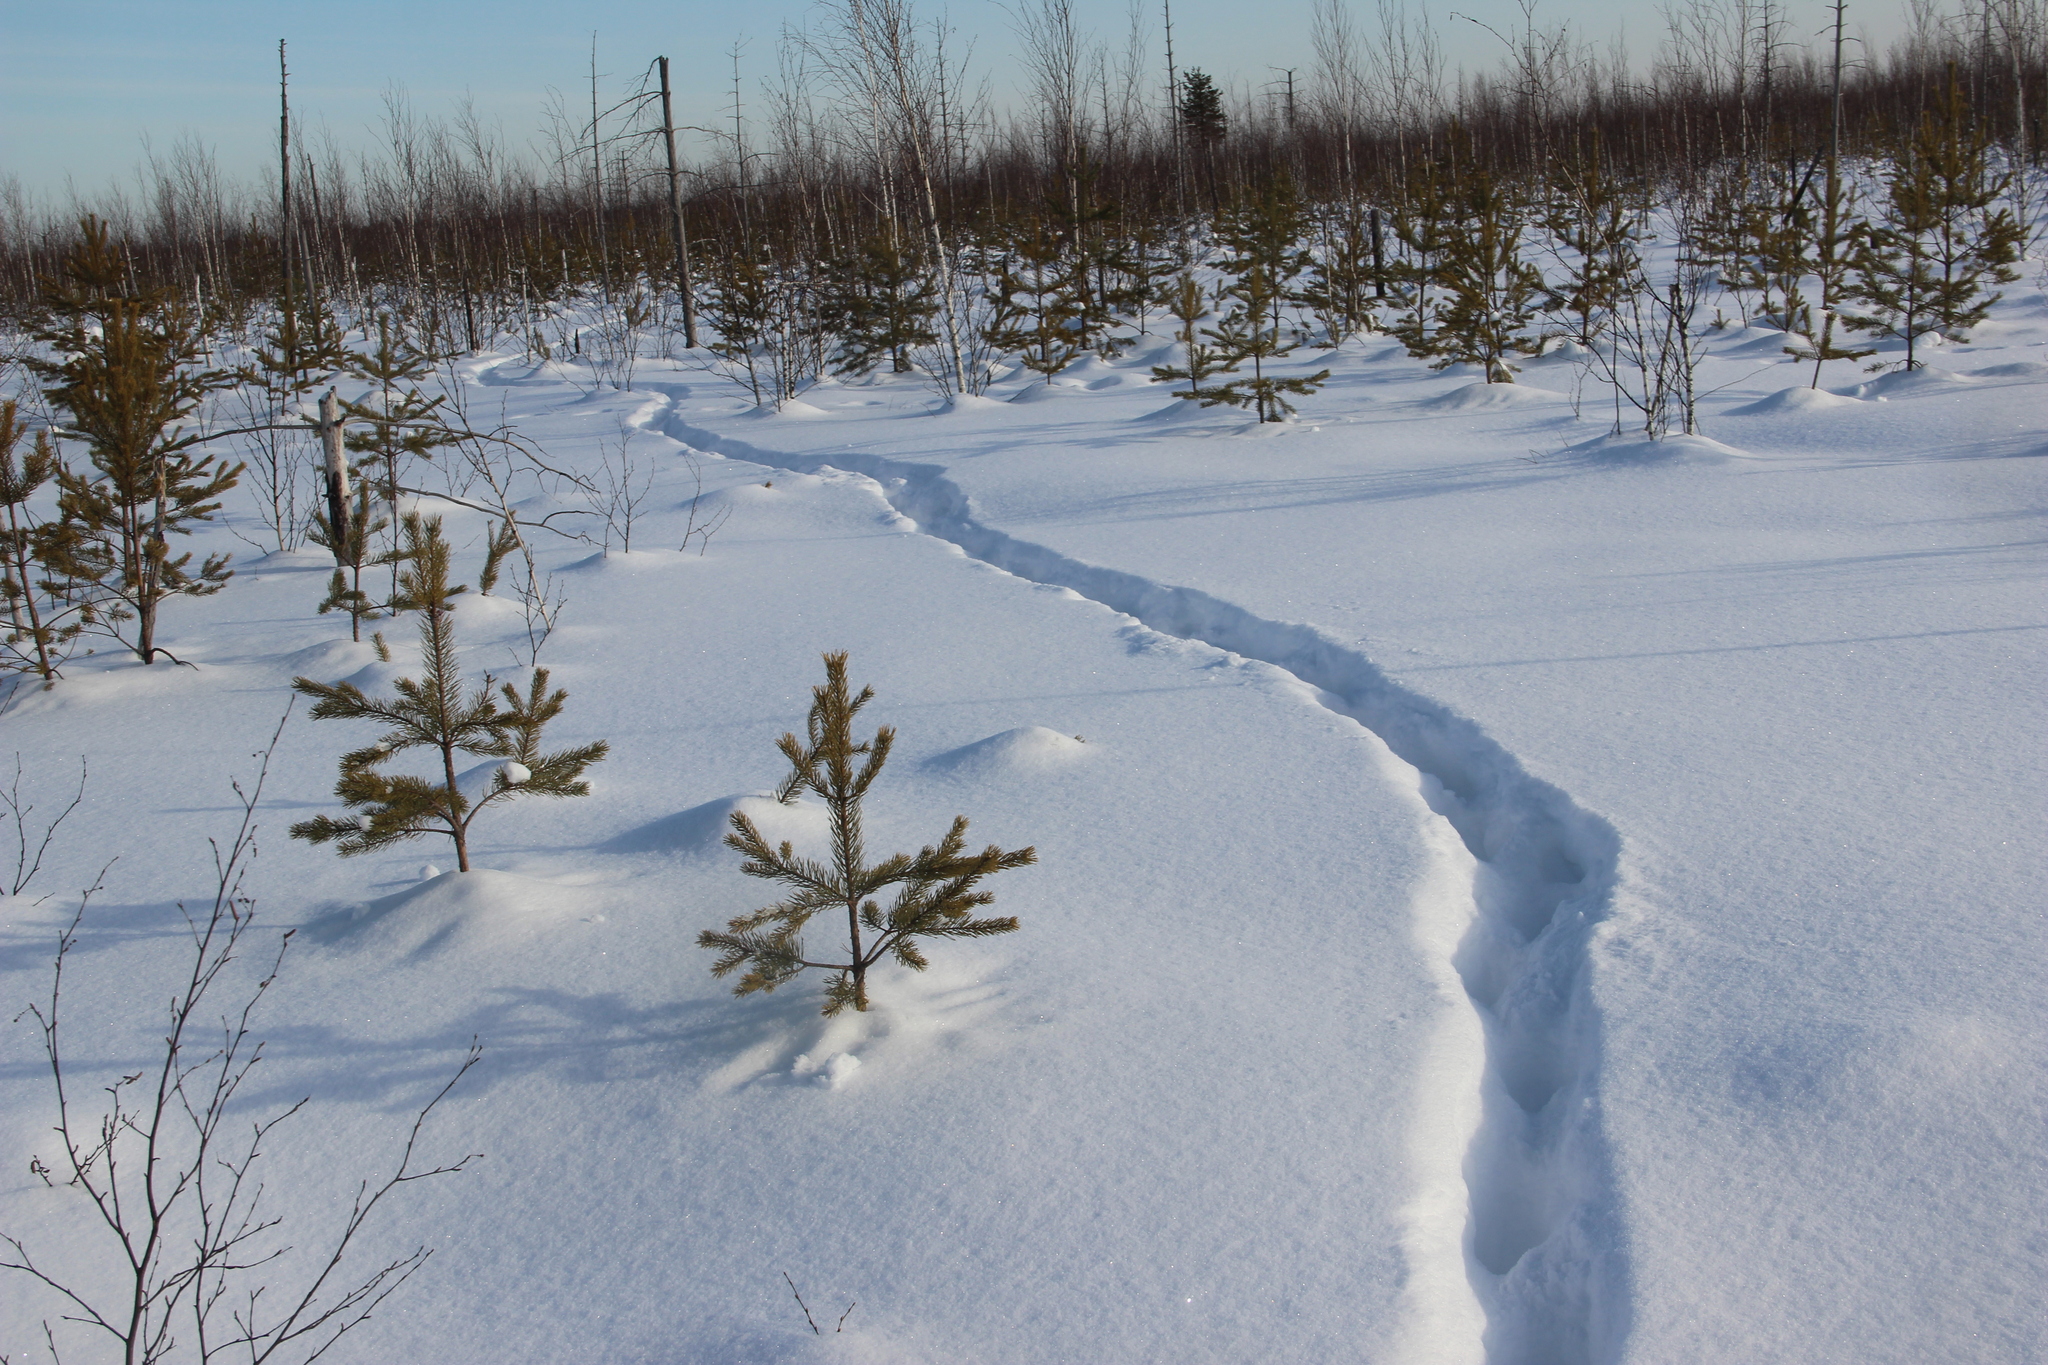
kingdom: Animalia
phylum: Chordata
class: Mammalia
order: Carnivora
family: Felidae
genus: Lynx
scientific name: Lynx lynx
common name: Eurasian lynx
